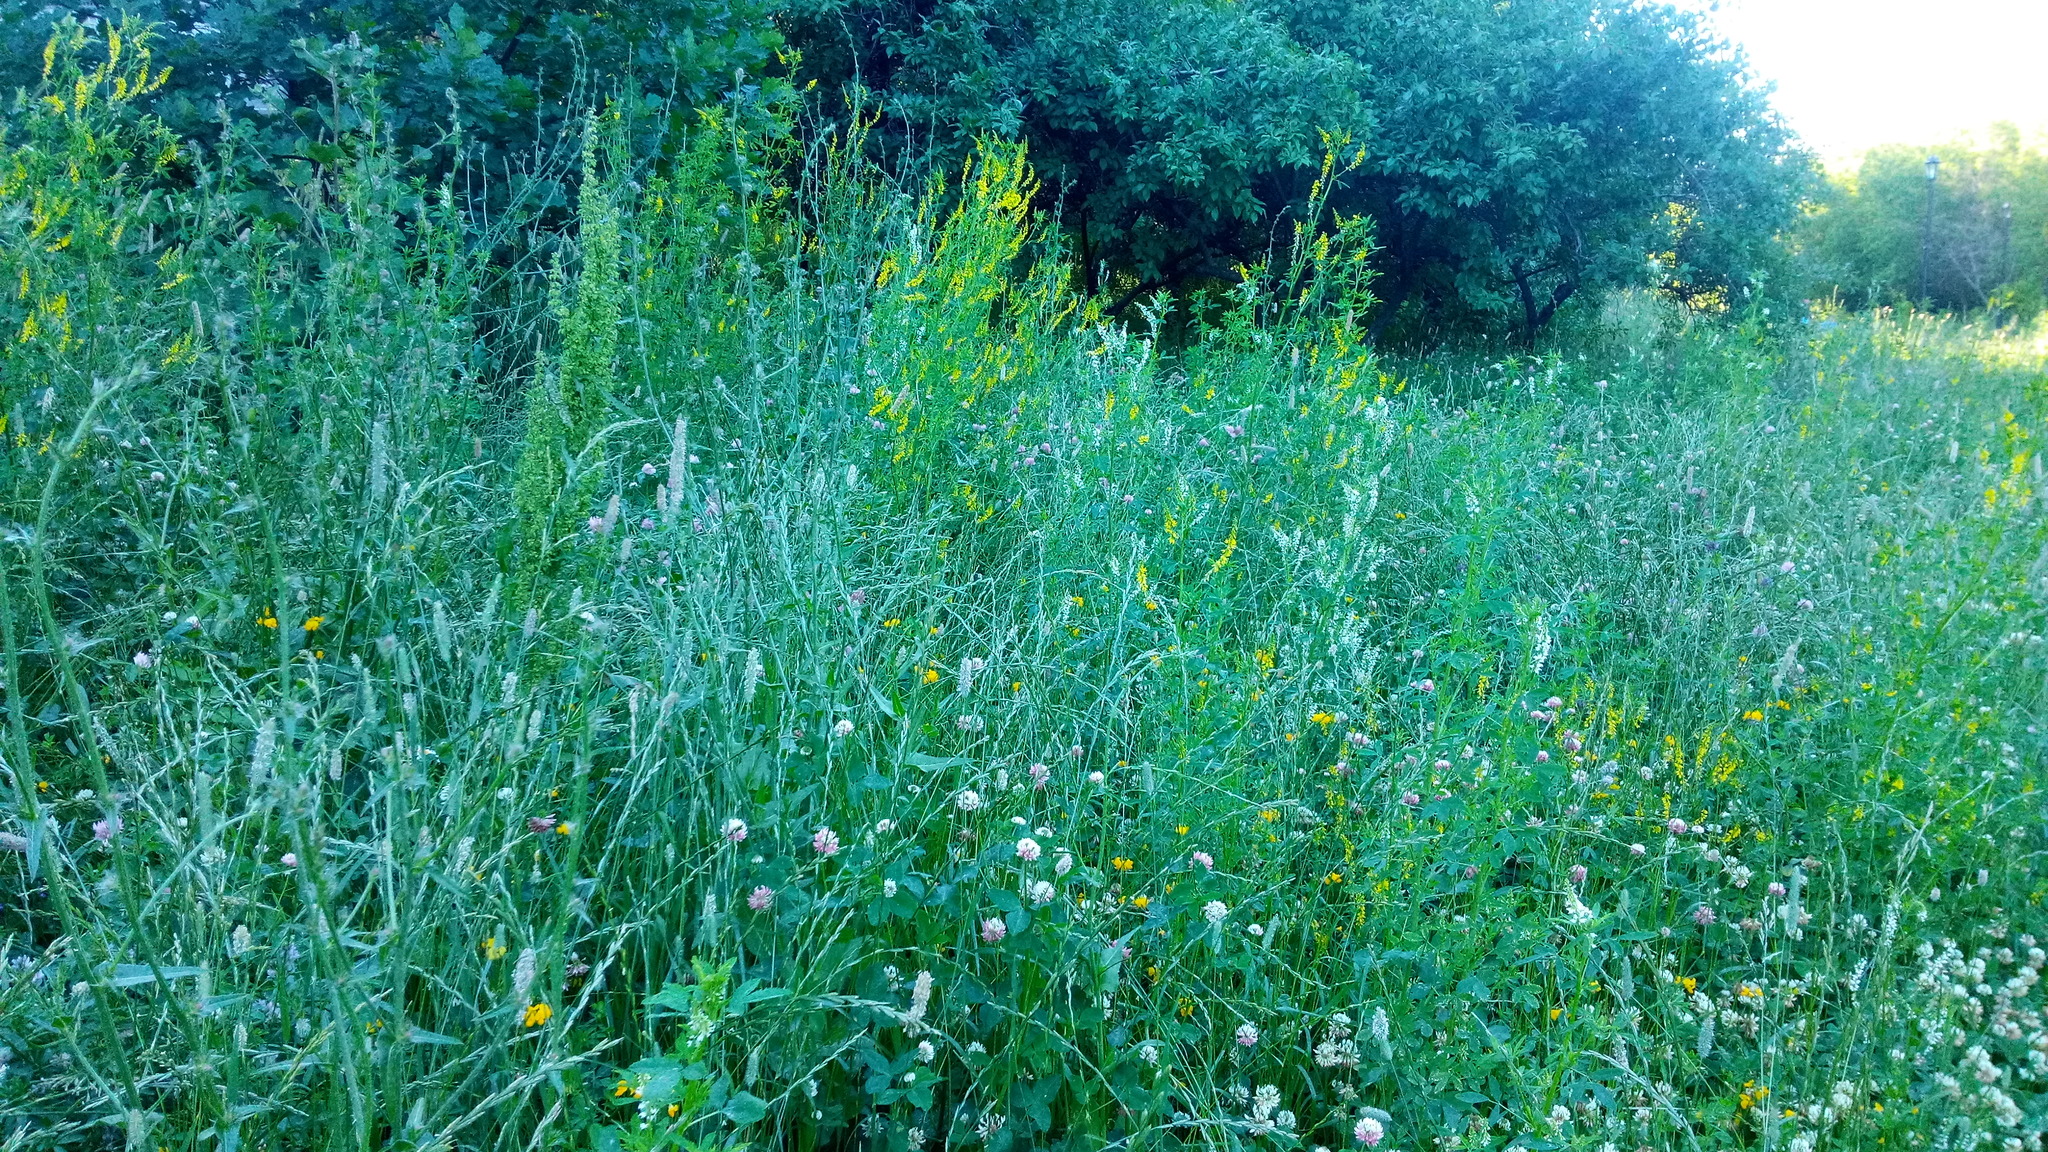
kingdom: Plantae
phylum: Tracheophyta
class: Magnoliopsida
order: Fabales
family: Fabaceae
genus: Melilotus
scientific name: Melilotus officinalis
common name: Sweetclover
